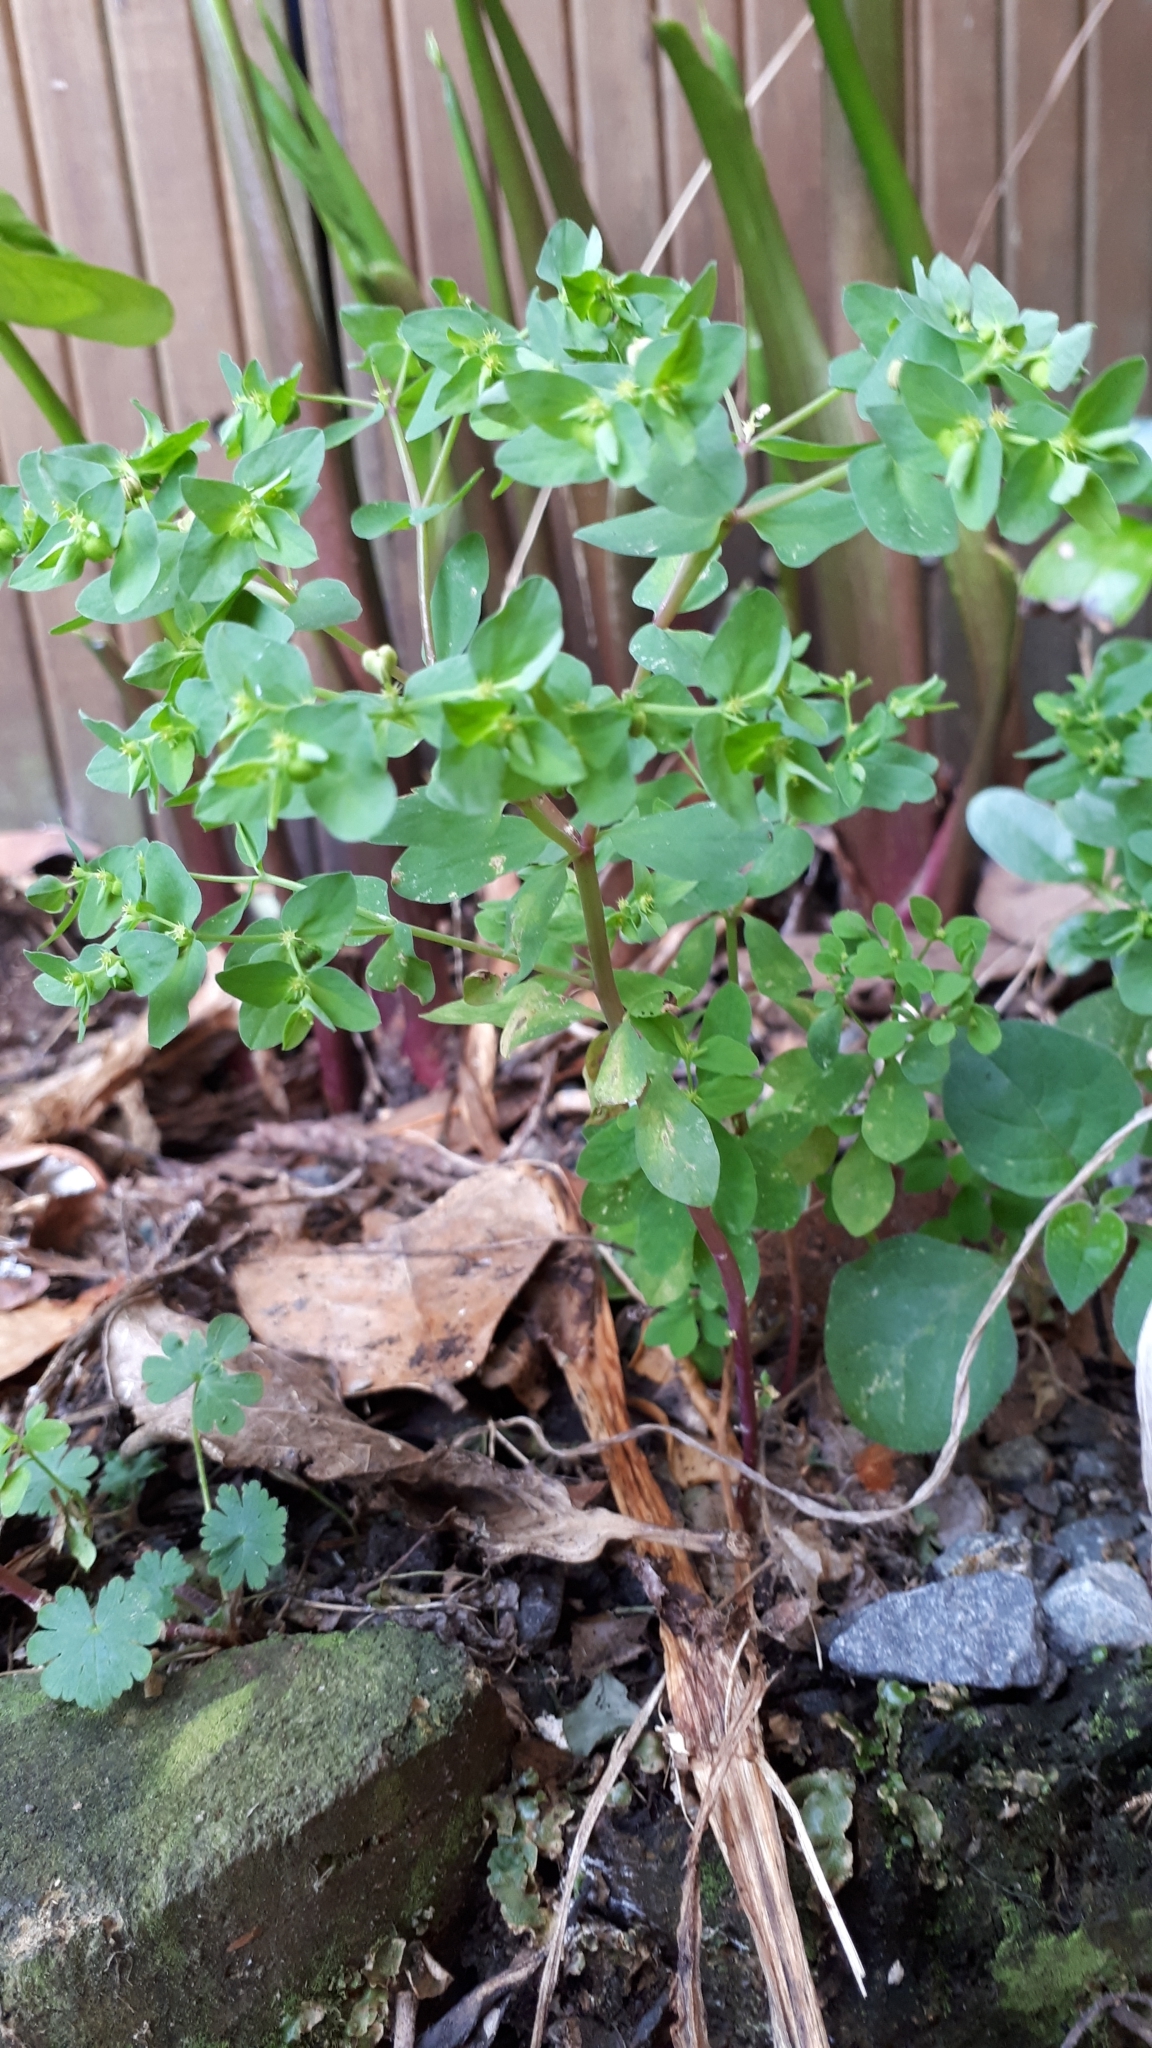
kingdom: Plantae
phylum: Tracheophyta
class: Magnoliopsida
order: Malpighiales
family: Euphorbiaceae
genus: Euphorbia
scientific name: Euphorbia peplus
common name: Petty spurge
